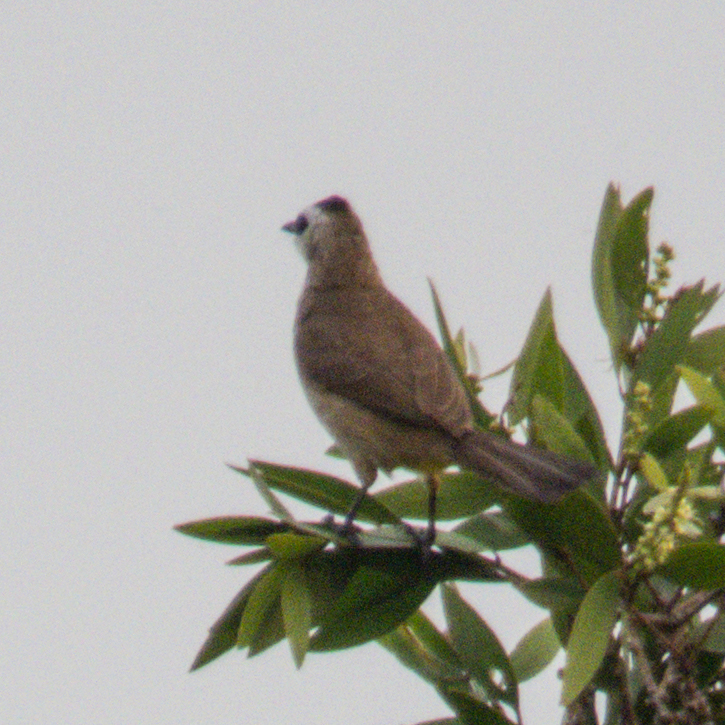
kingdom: Animalia
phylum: Chordata
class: Aves
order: Passeriformes
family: Pycnonotidae
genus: Pycnonotus
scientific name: Pycnonotus goiavier
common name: Yellow-vented bulbul
